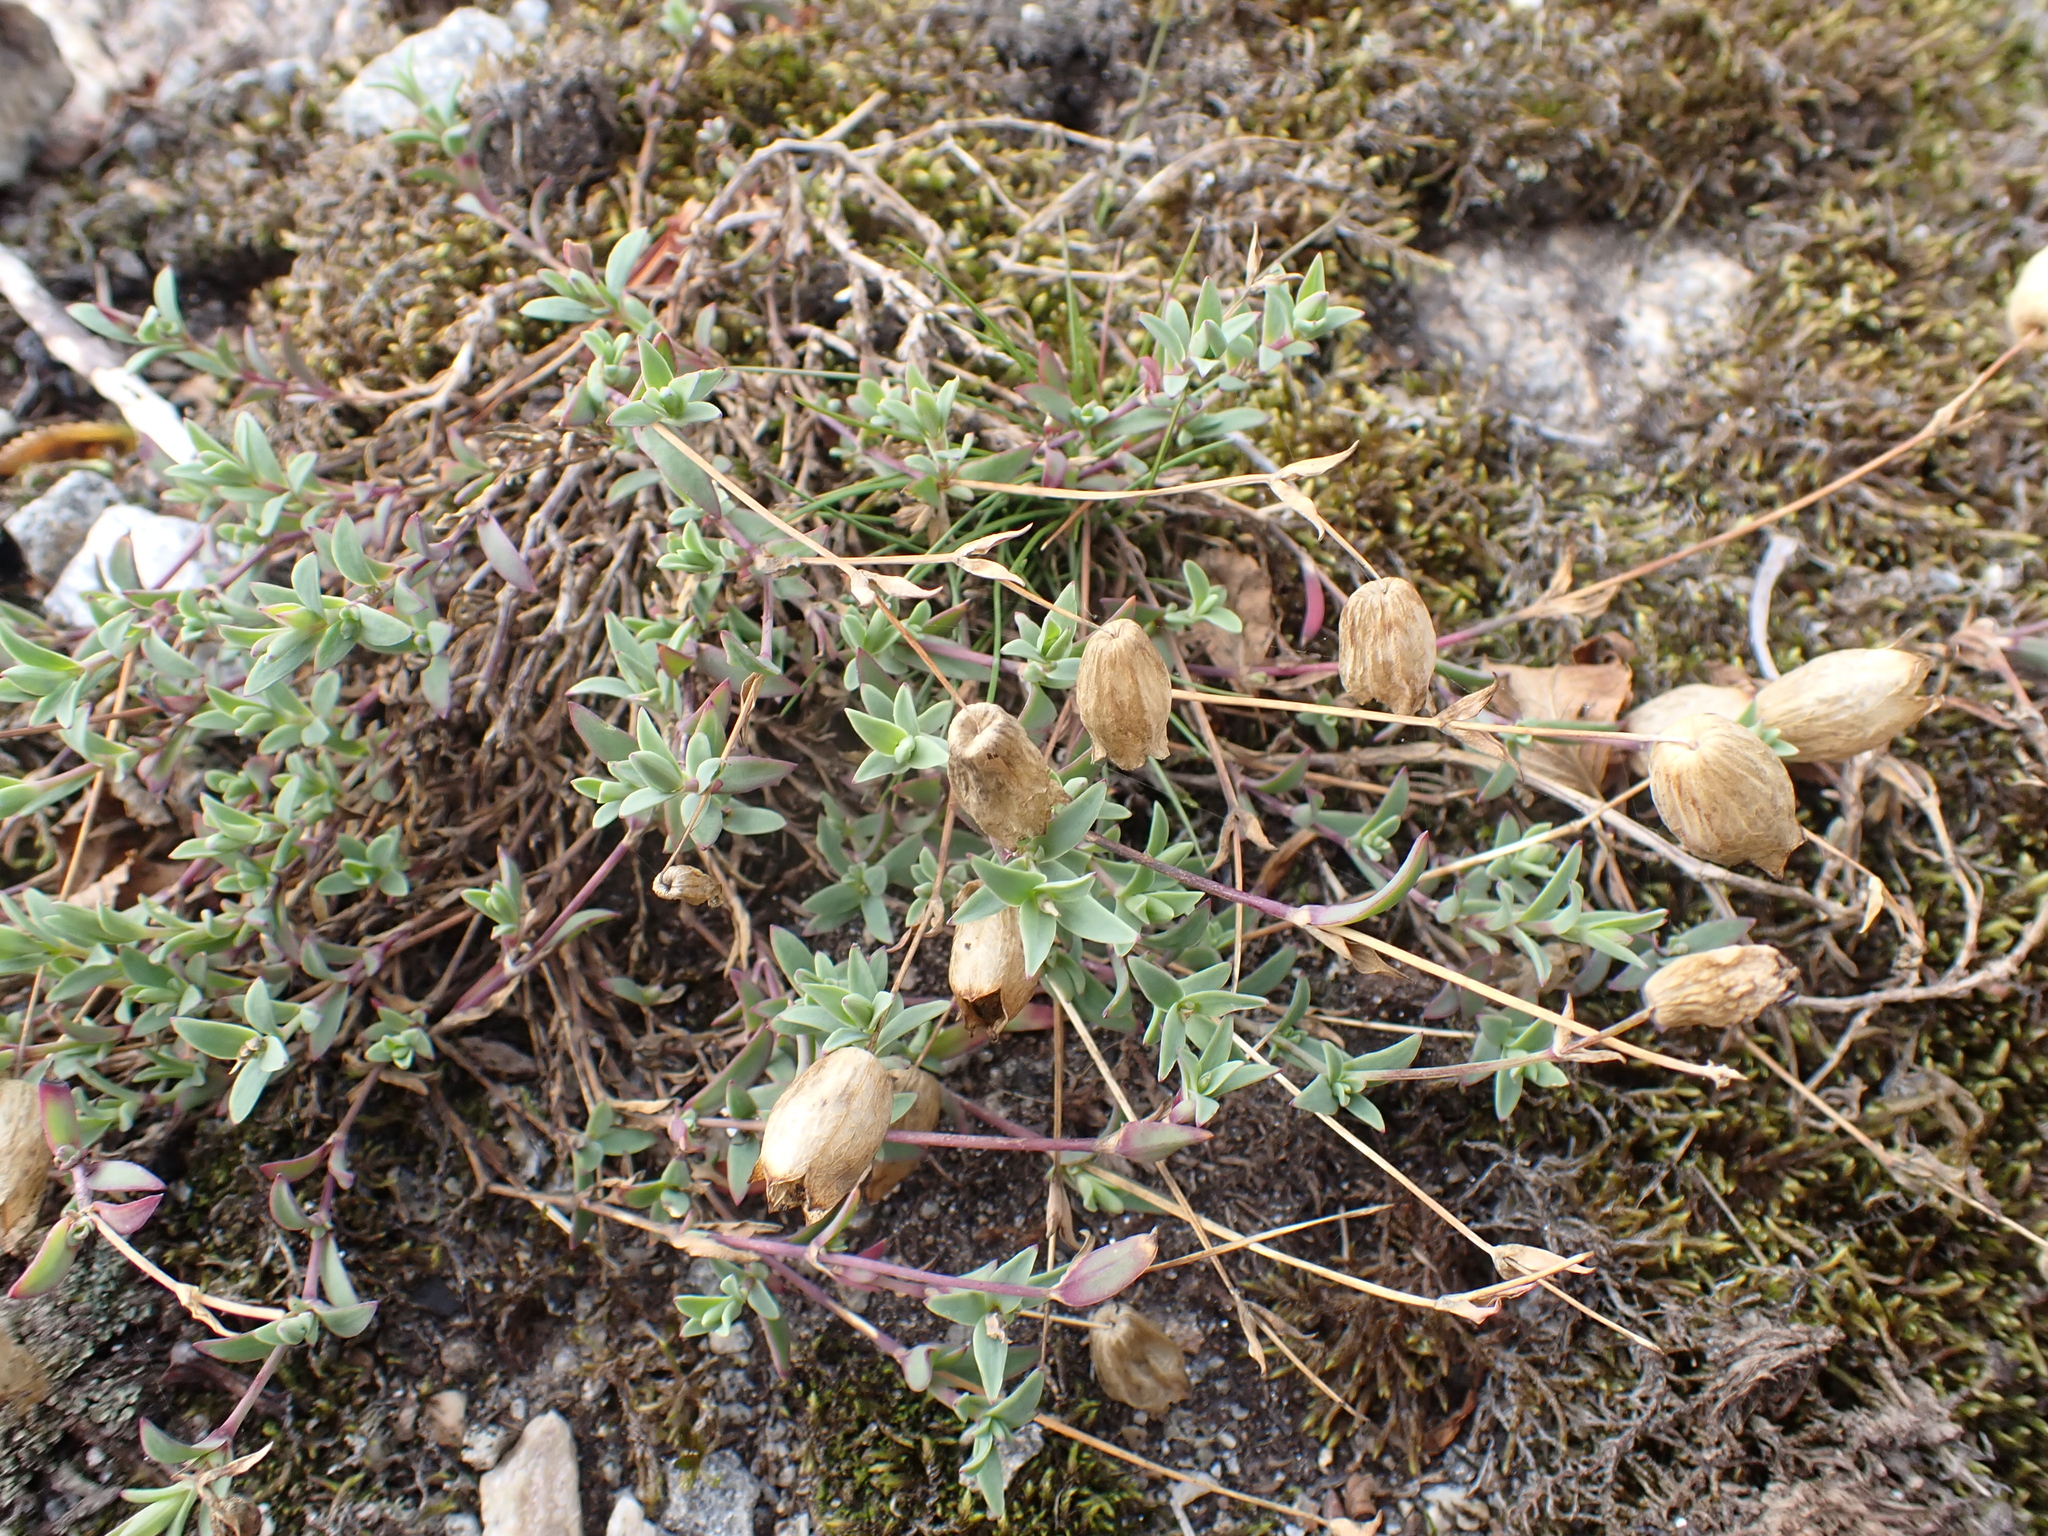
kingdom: Plantae
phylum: Tracheophyta
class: Magnoliopsida
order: Caryophyllales
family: Caryophyllaceae
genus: Silene
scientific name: Silene uniflora
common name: Sea campion
